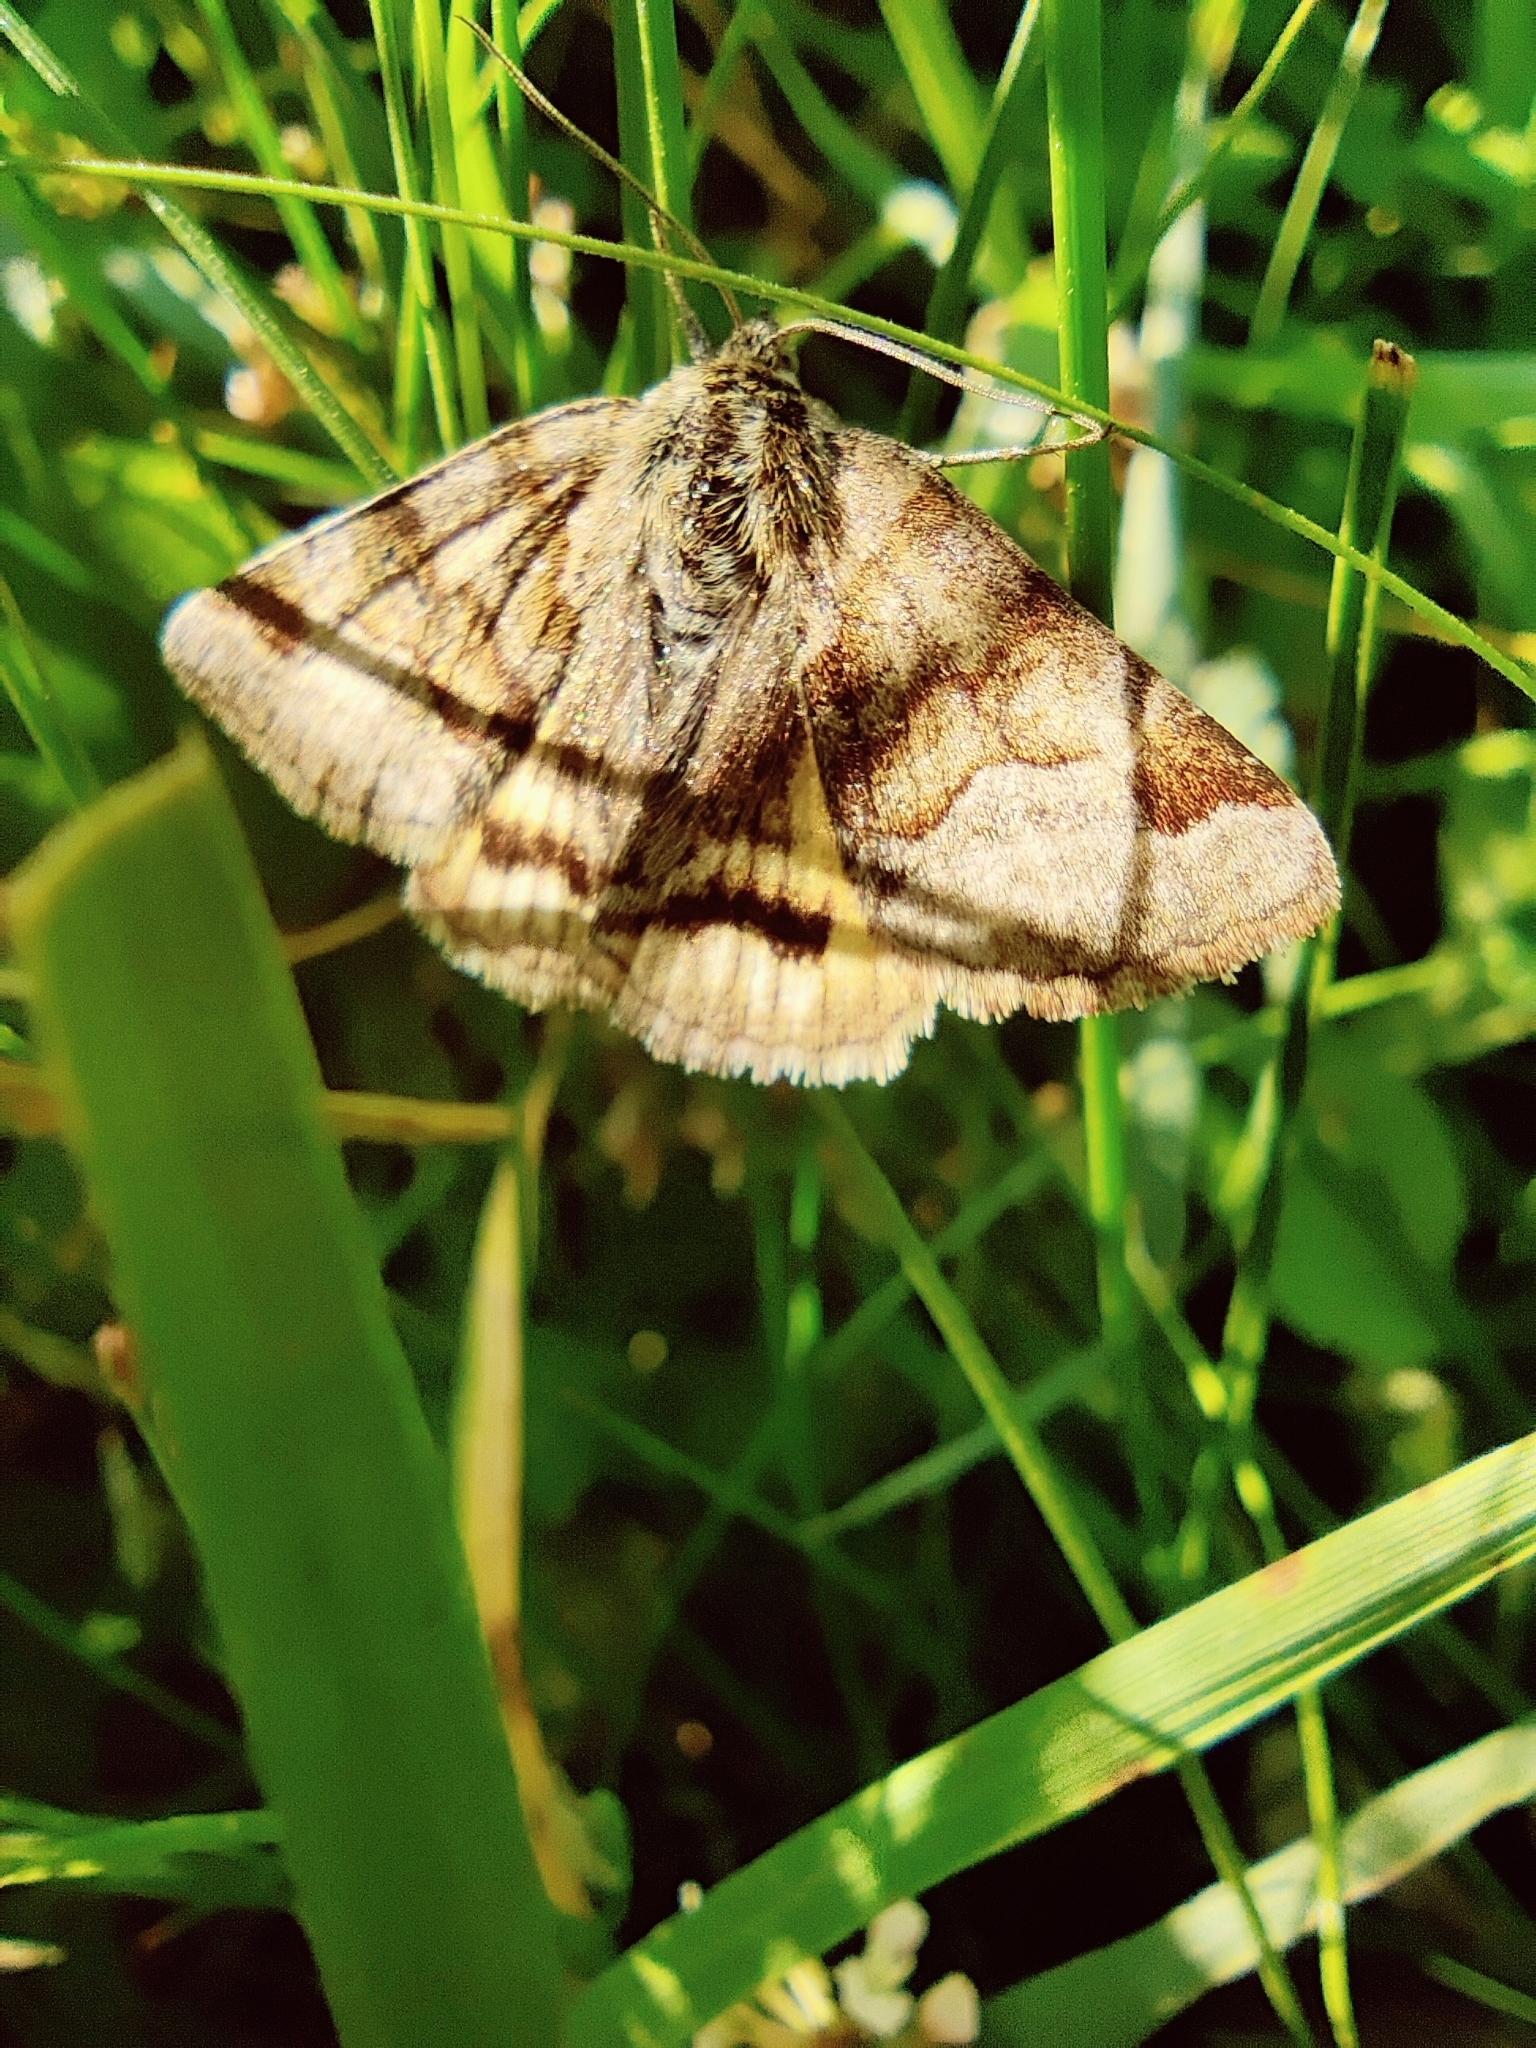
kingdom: Animalia
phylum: Arthropoda
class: Insecta
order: Lepidoptera
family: Erebidae
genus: Euclidia
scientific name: Euclidia glyphica
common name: Burnet companion
